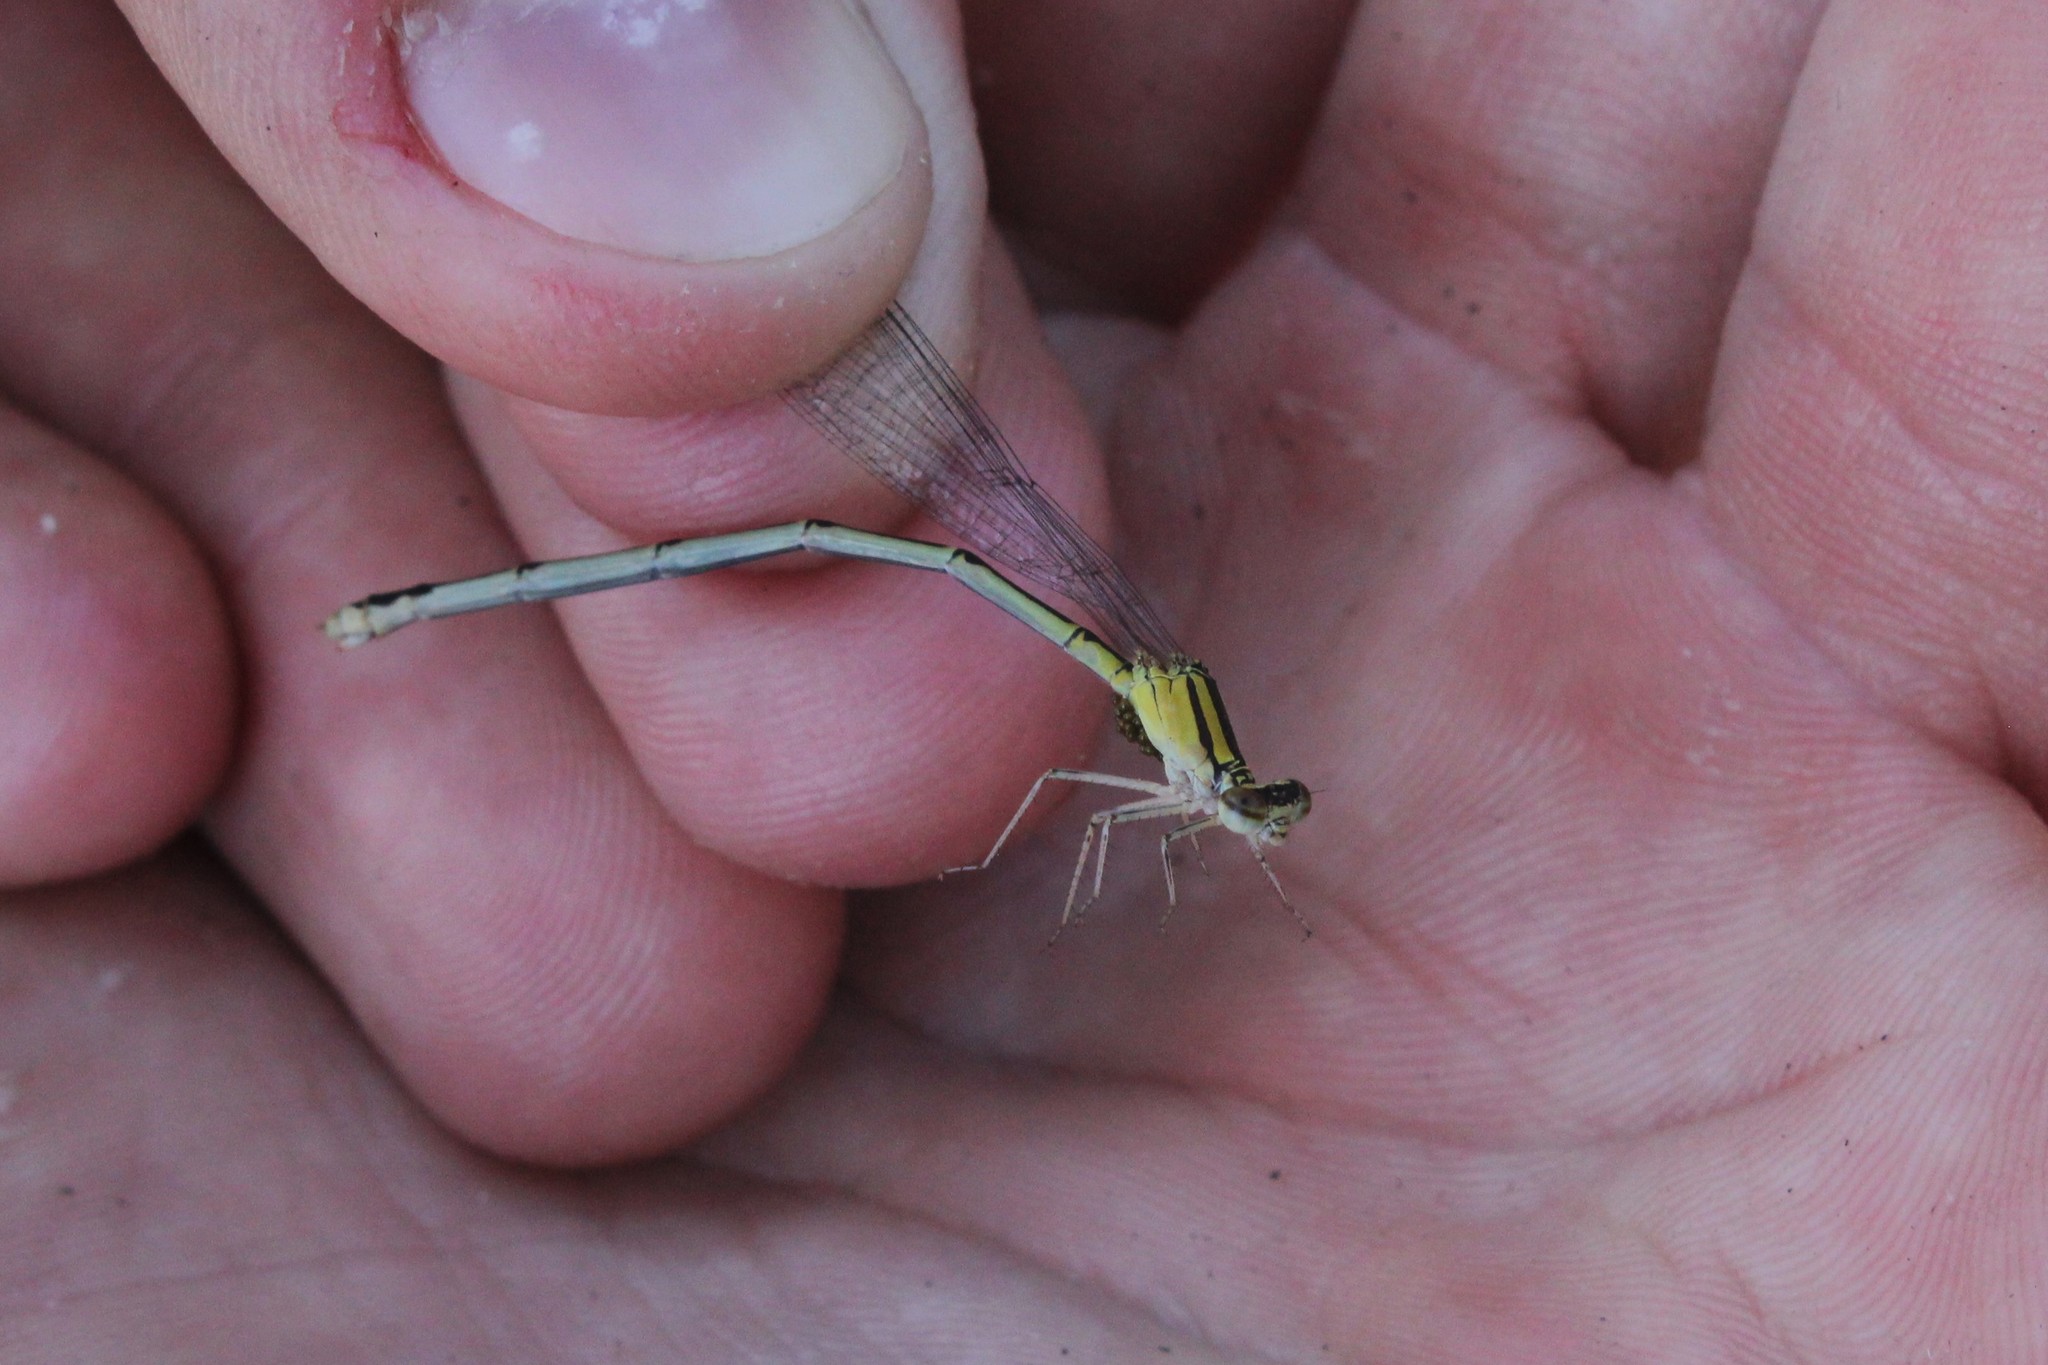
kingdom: Animalia
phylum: Arthropoda
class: Insecta
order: Odonata
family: Coenagrionidae
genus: Enallagma
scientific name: Enallagma vesperum
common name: Vesper bluet
